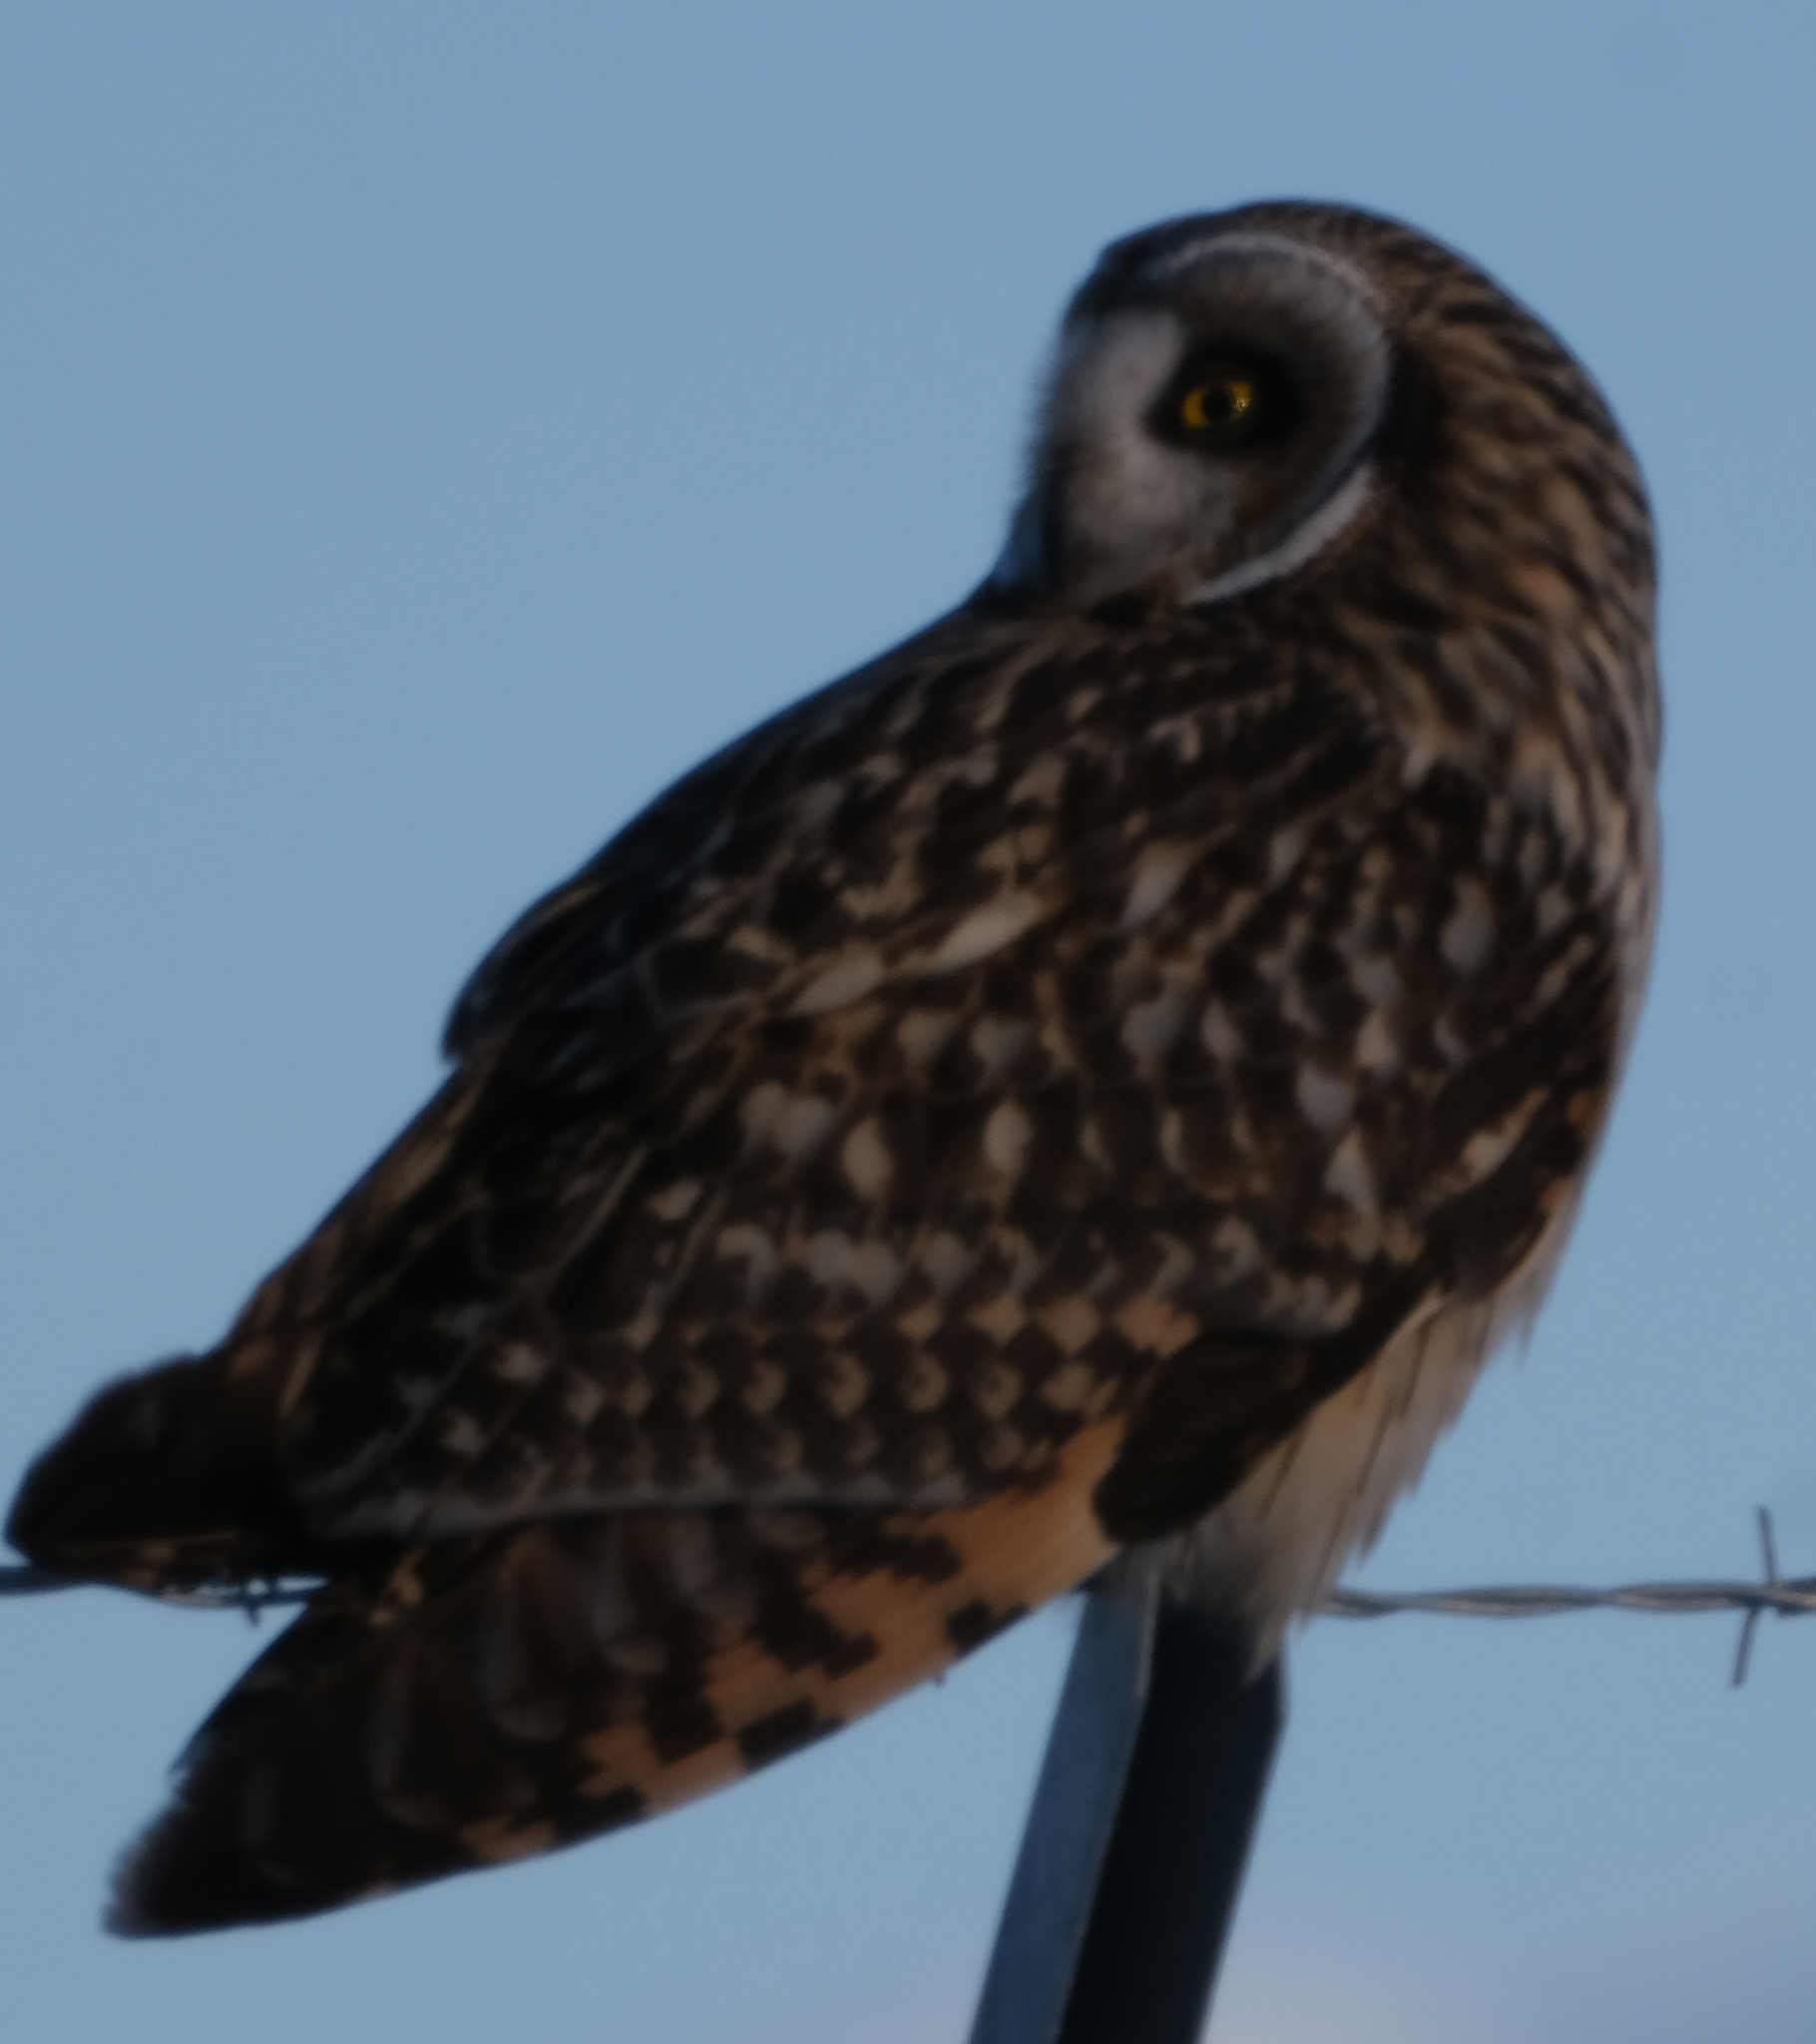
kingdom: Animalia
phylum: Chordata
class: Aves
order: Strigiformes
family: Strigidae
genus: Asio
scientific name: Asio flammeus
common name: Short-eared owl
